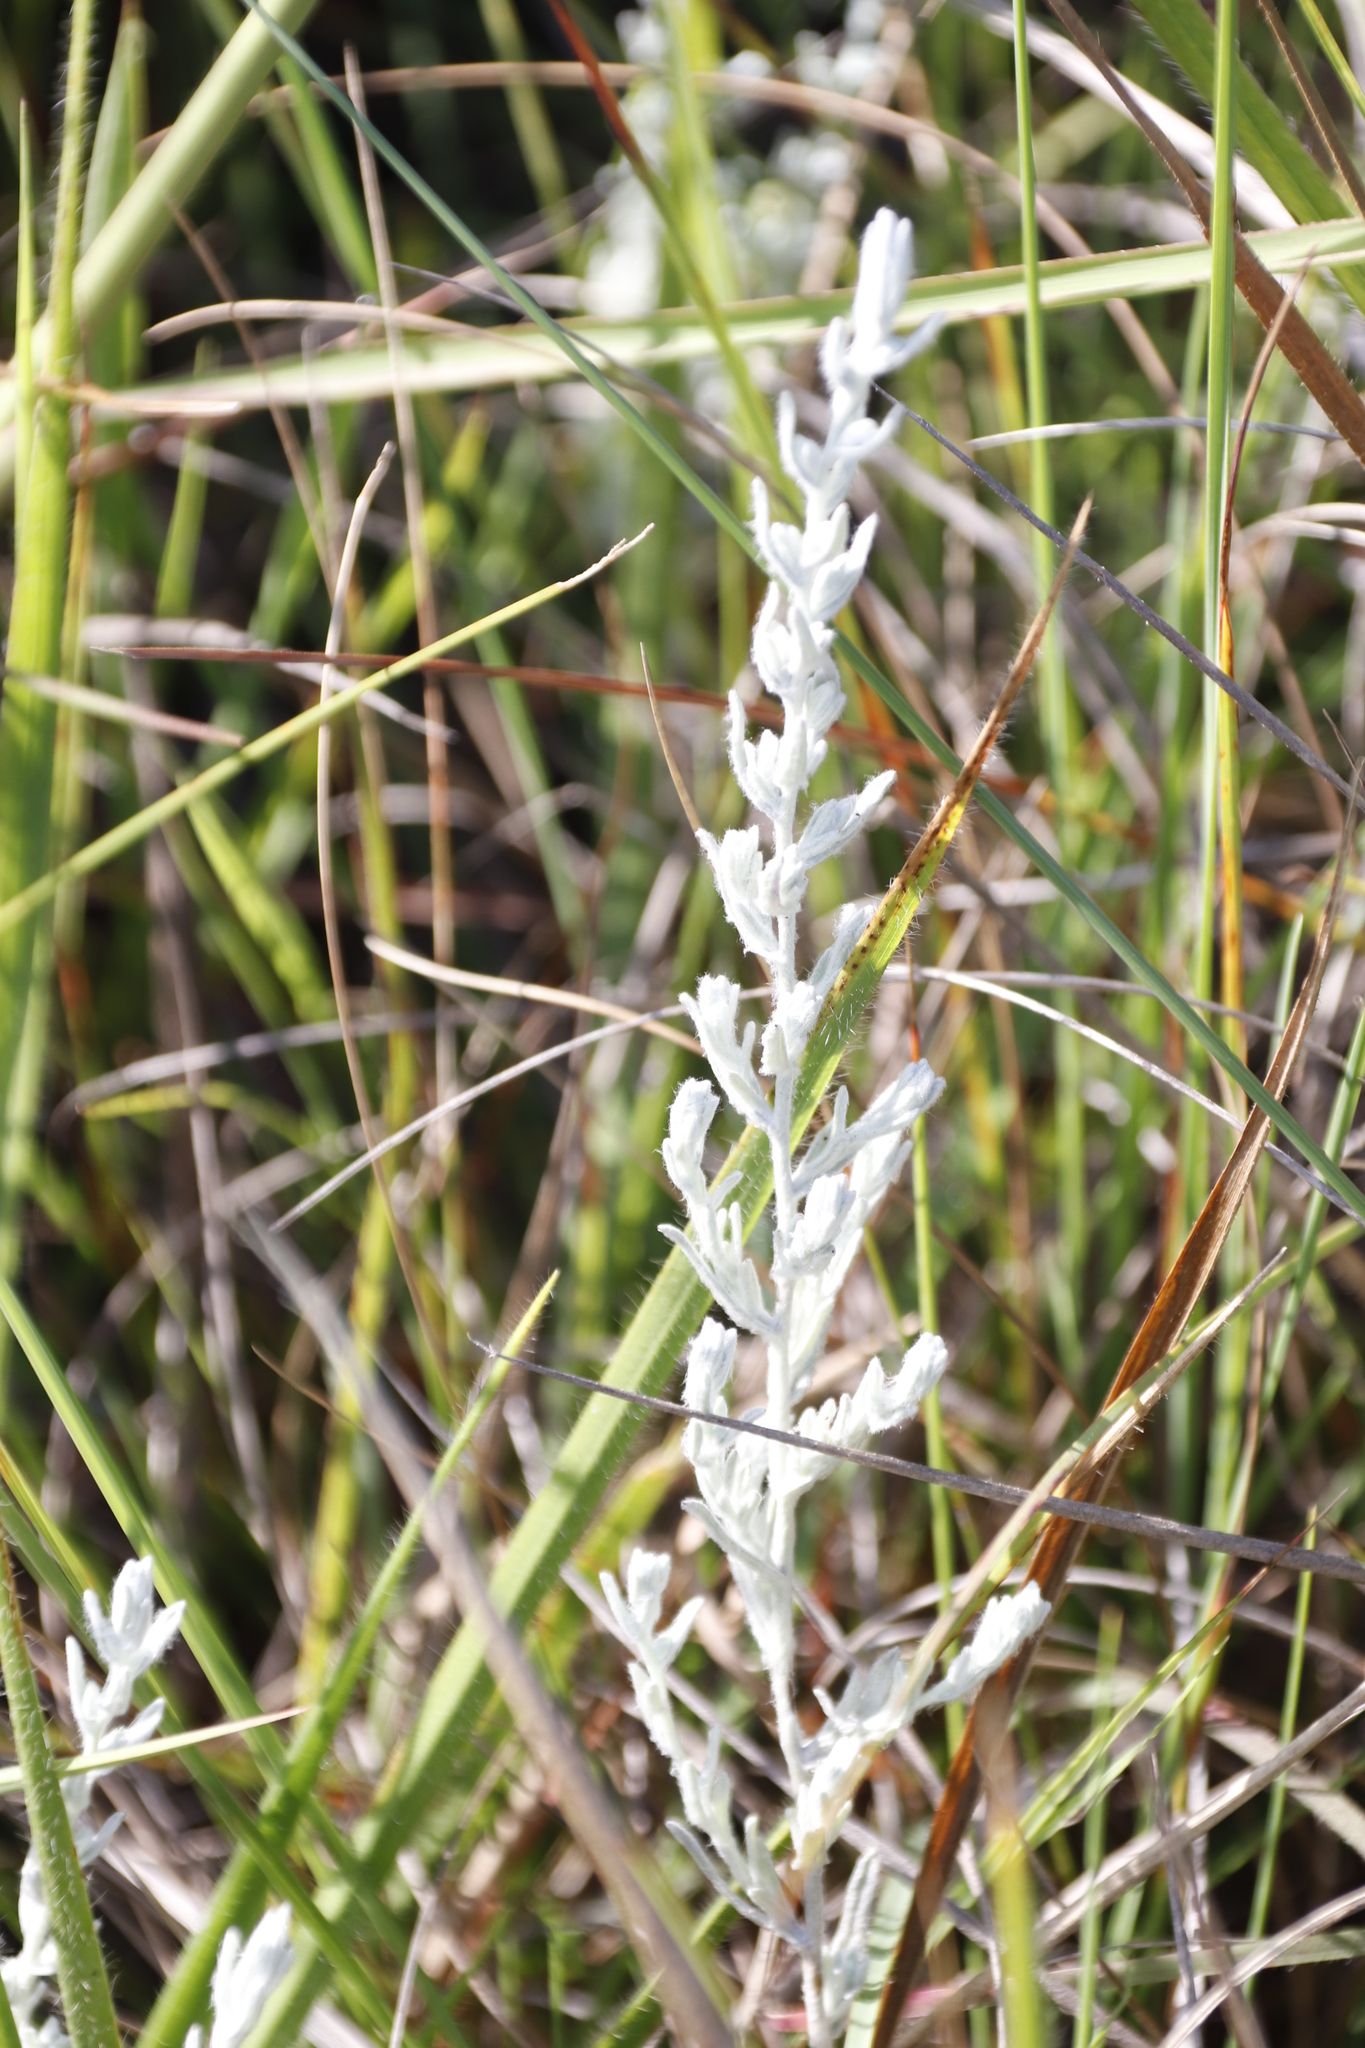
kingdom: Plantae
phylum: Tracheophyta
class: Magnoliopsida
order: Asterales
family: Asteraceae
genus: Helichrysum
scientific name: Helichrysum aureonitens
